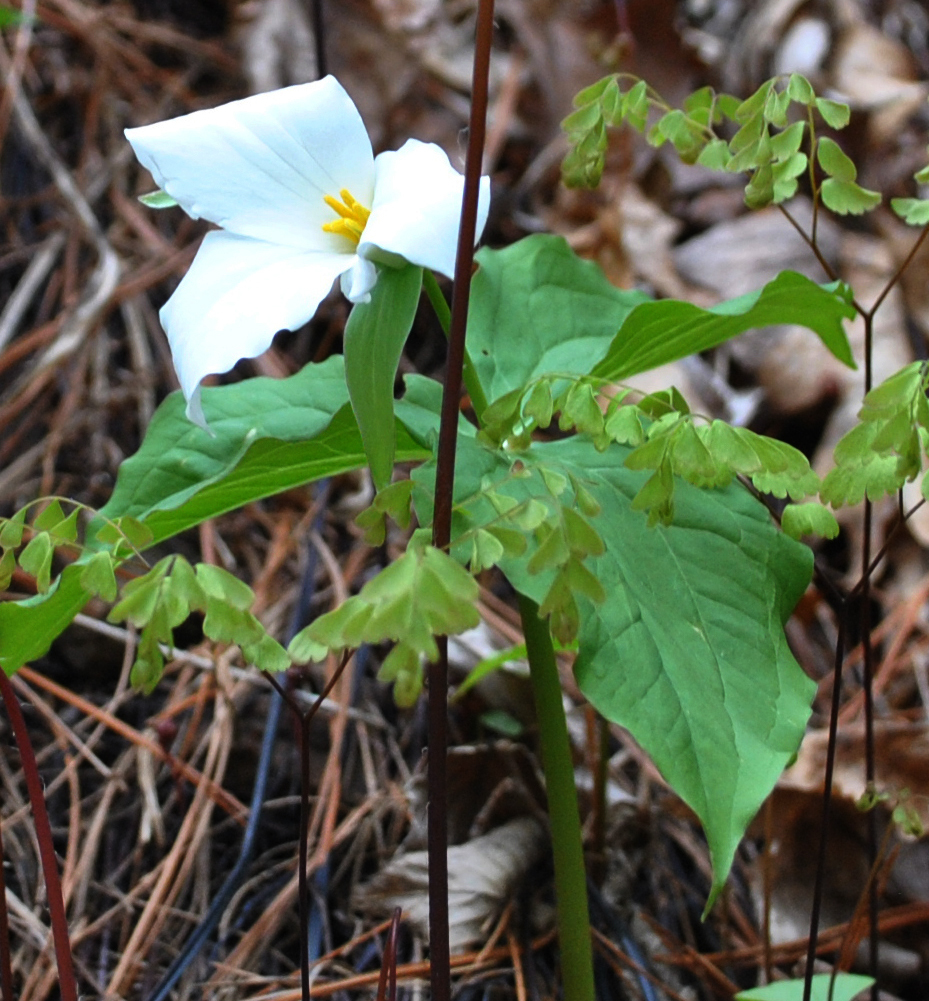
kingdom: Plantae
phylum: Tracheophyta
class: Liliopsida
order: Liliales
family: Melanthiaceae
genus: Trillium
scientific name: Trillium grandiflorum
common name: Great white trillium
